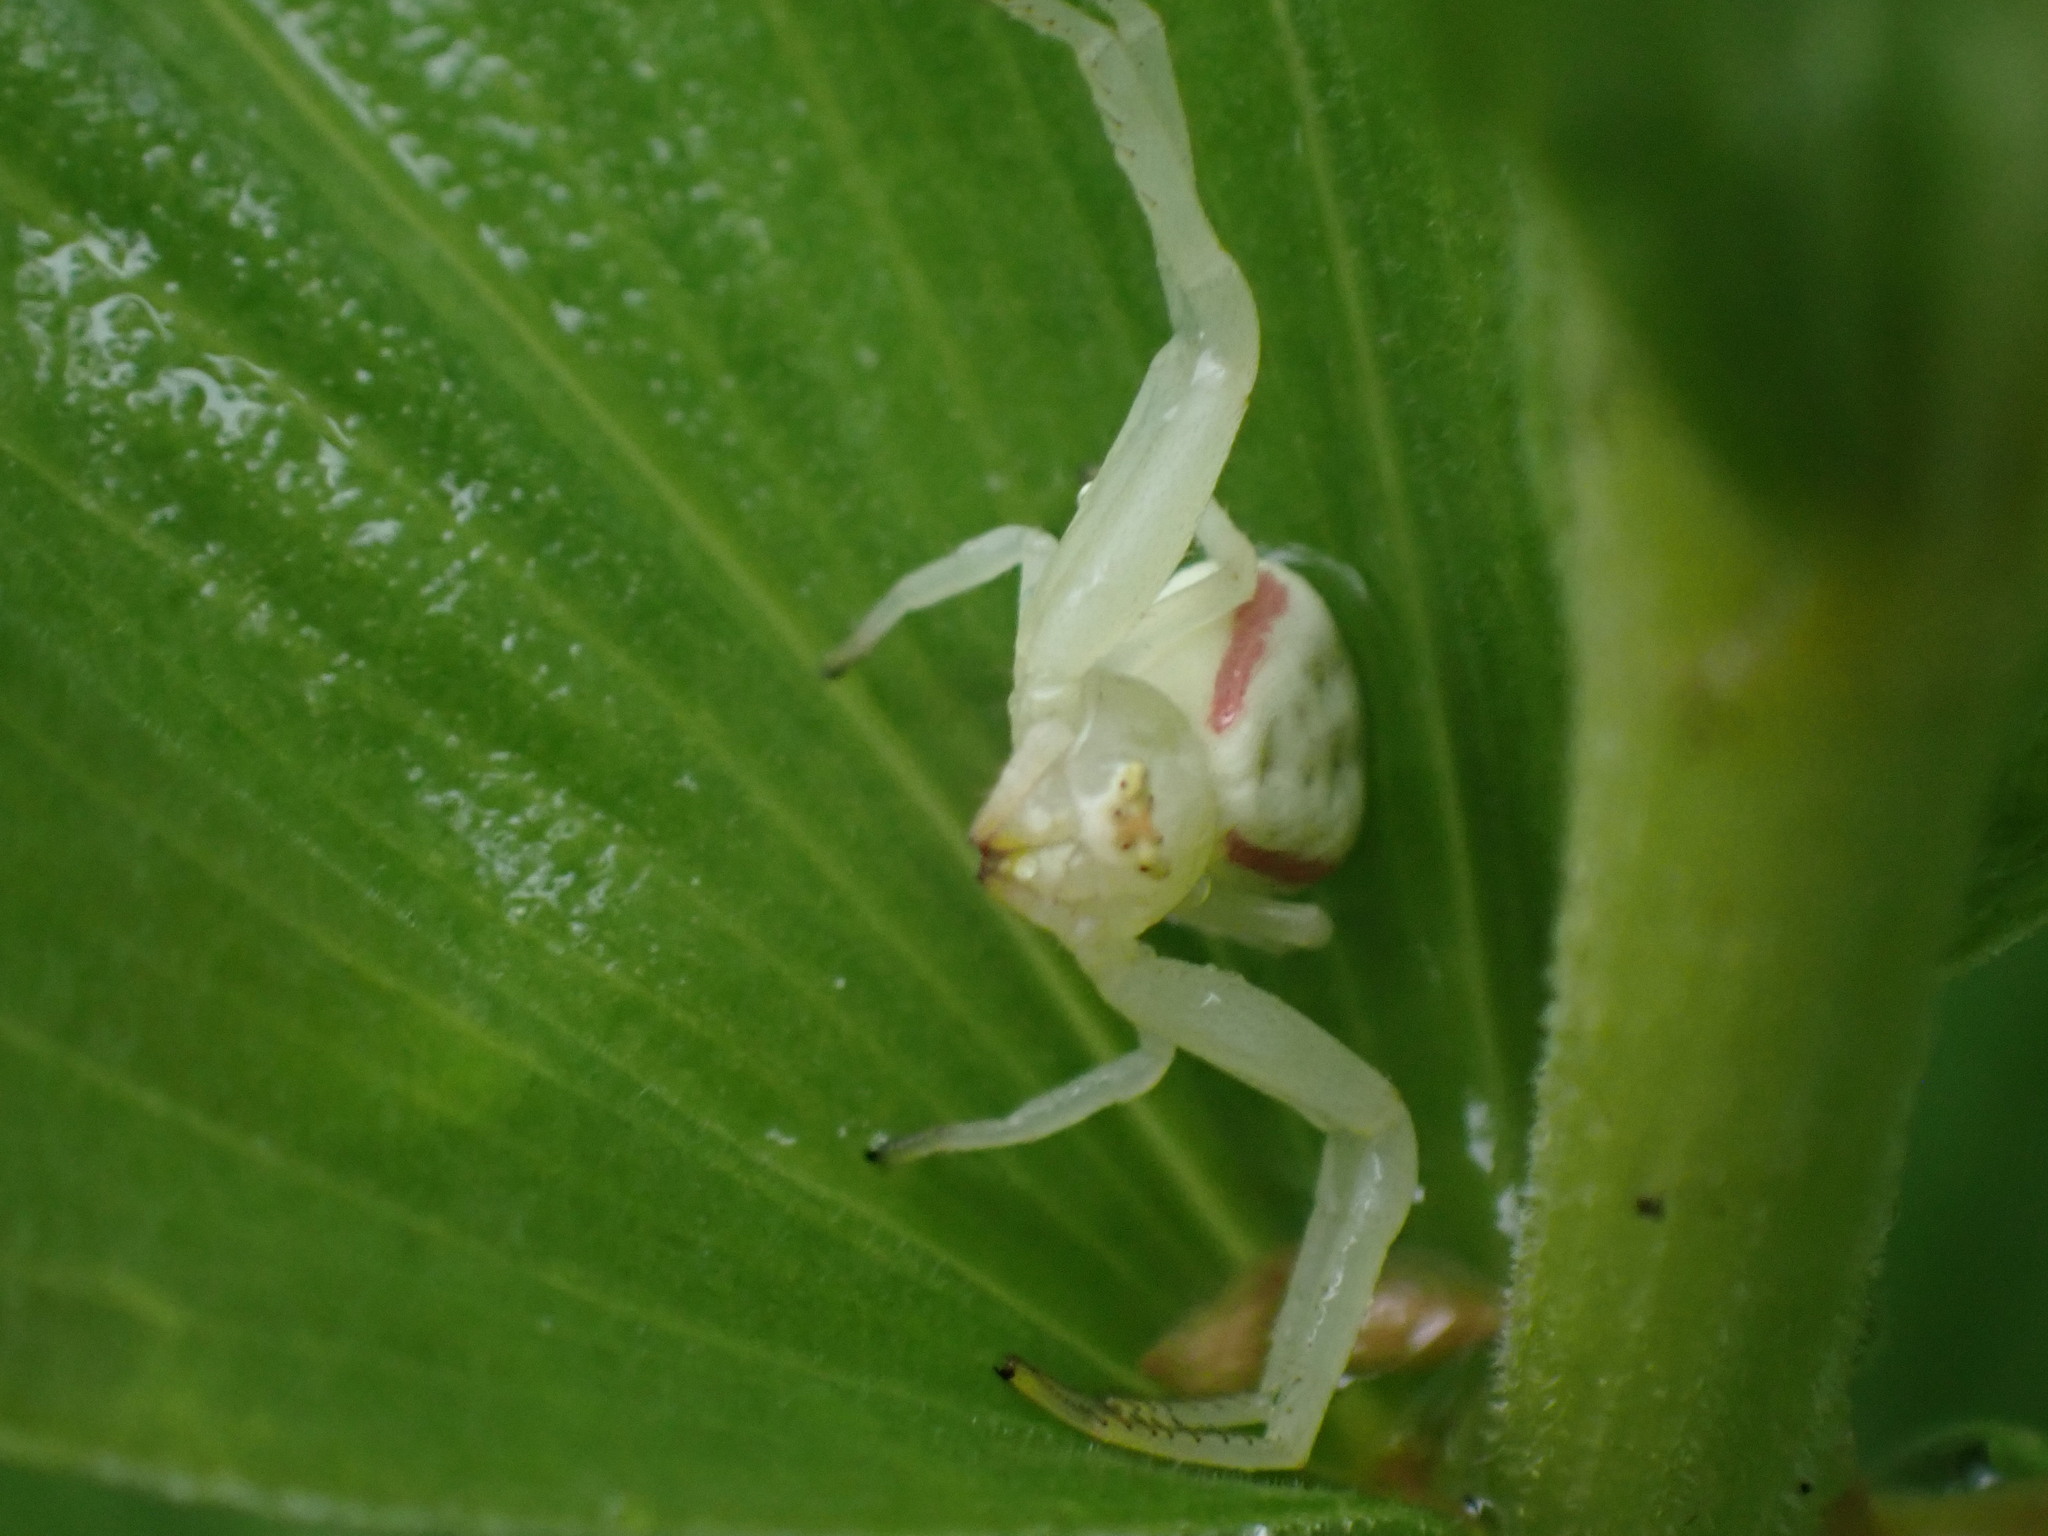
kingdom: Animalia
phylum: Arthropoda
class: Arachnida
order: Araneae
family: Thomisidae
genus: Misumena
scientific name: Misumena vatia
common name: Goldenrod crab spider
